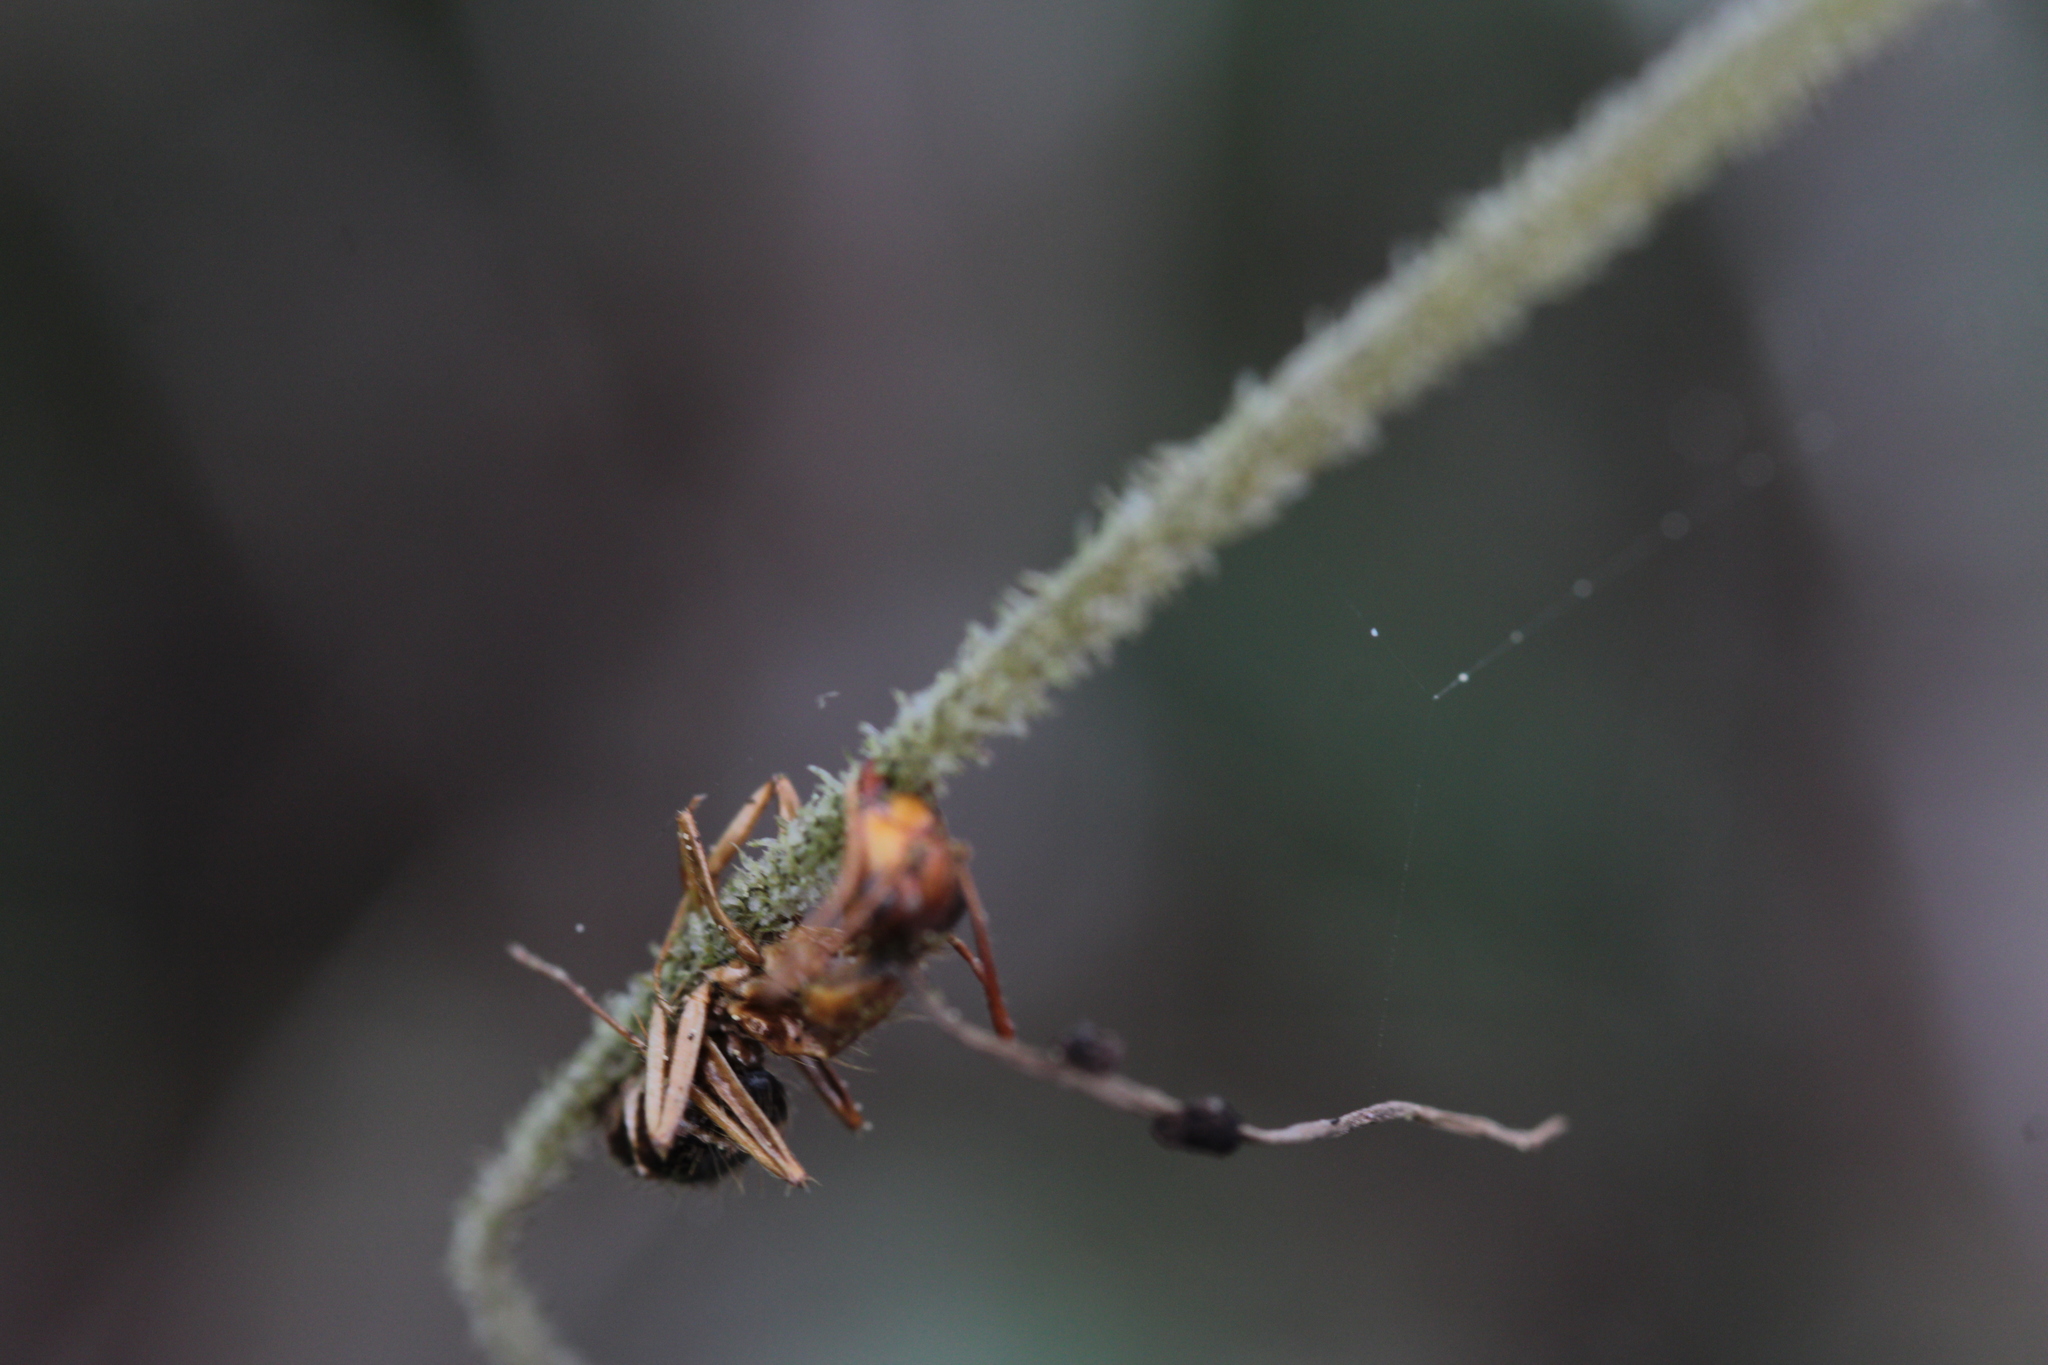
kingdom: Fungi
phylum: Ascomycota
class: Sordariomycetes
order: Hypocreales
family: Ophiocordycipitaceae
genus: Ophiocordyceps
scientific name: Ophiocordyceps camponoti-floridani
